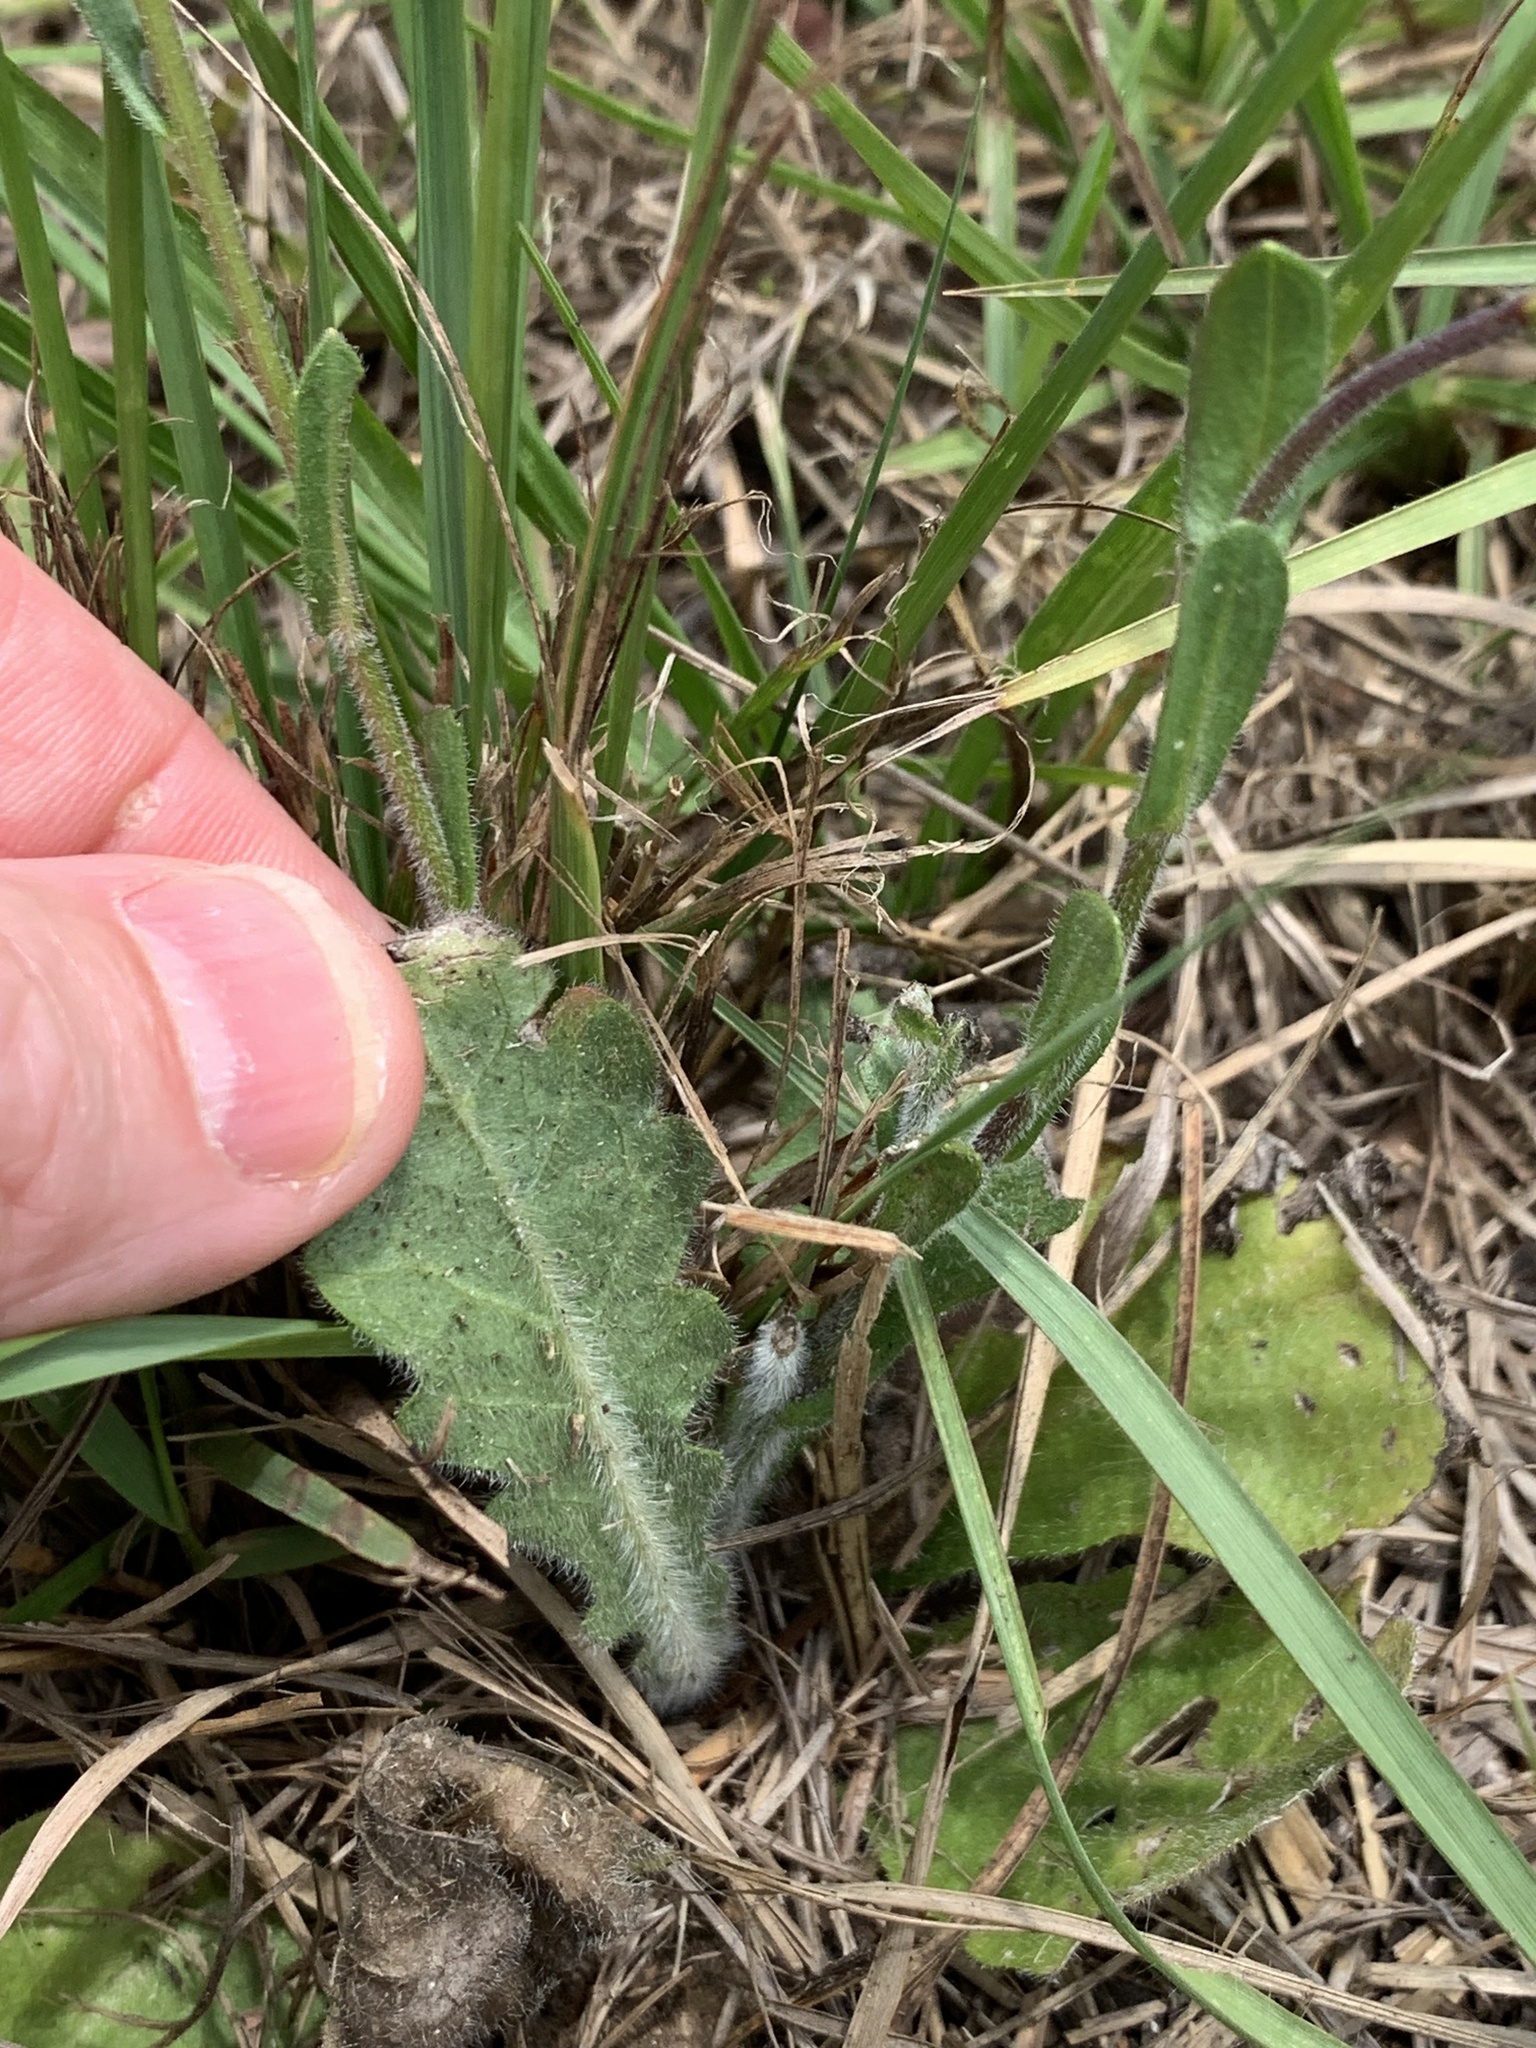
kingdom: Plantae
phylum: Tracheophyta
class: Magnoliopsida
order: Asterales
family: Asteraceae
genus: Erigeron
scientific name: Erigeron quercifolius
